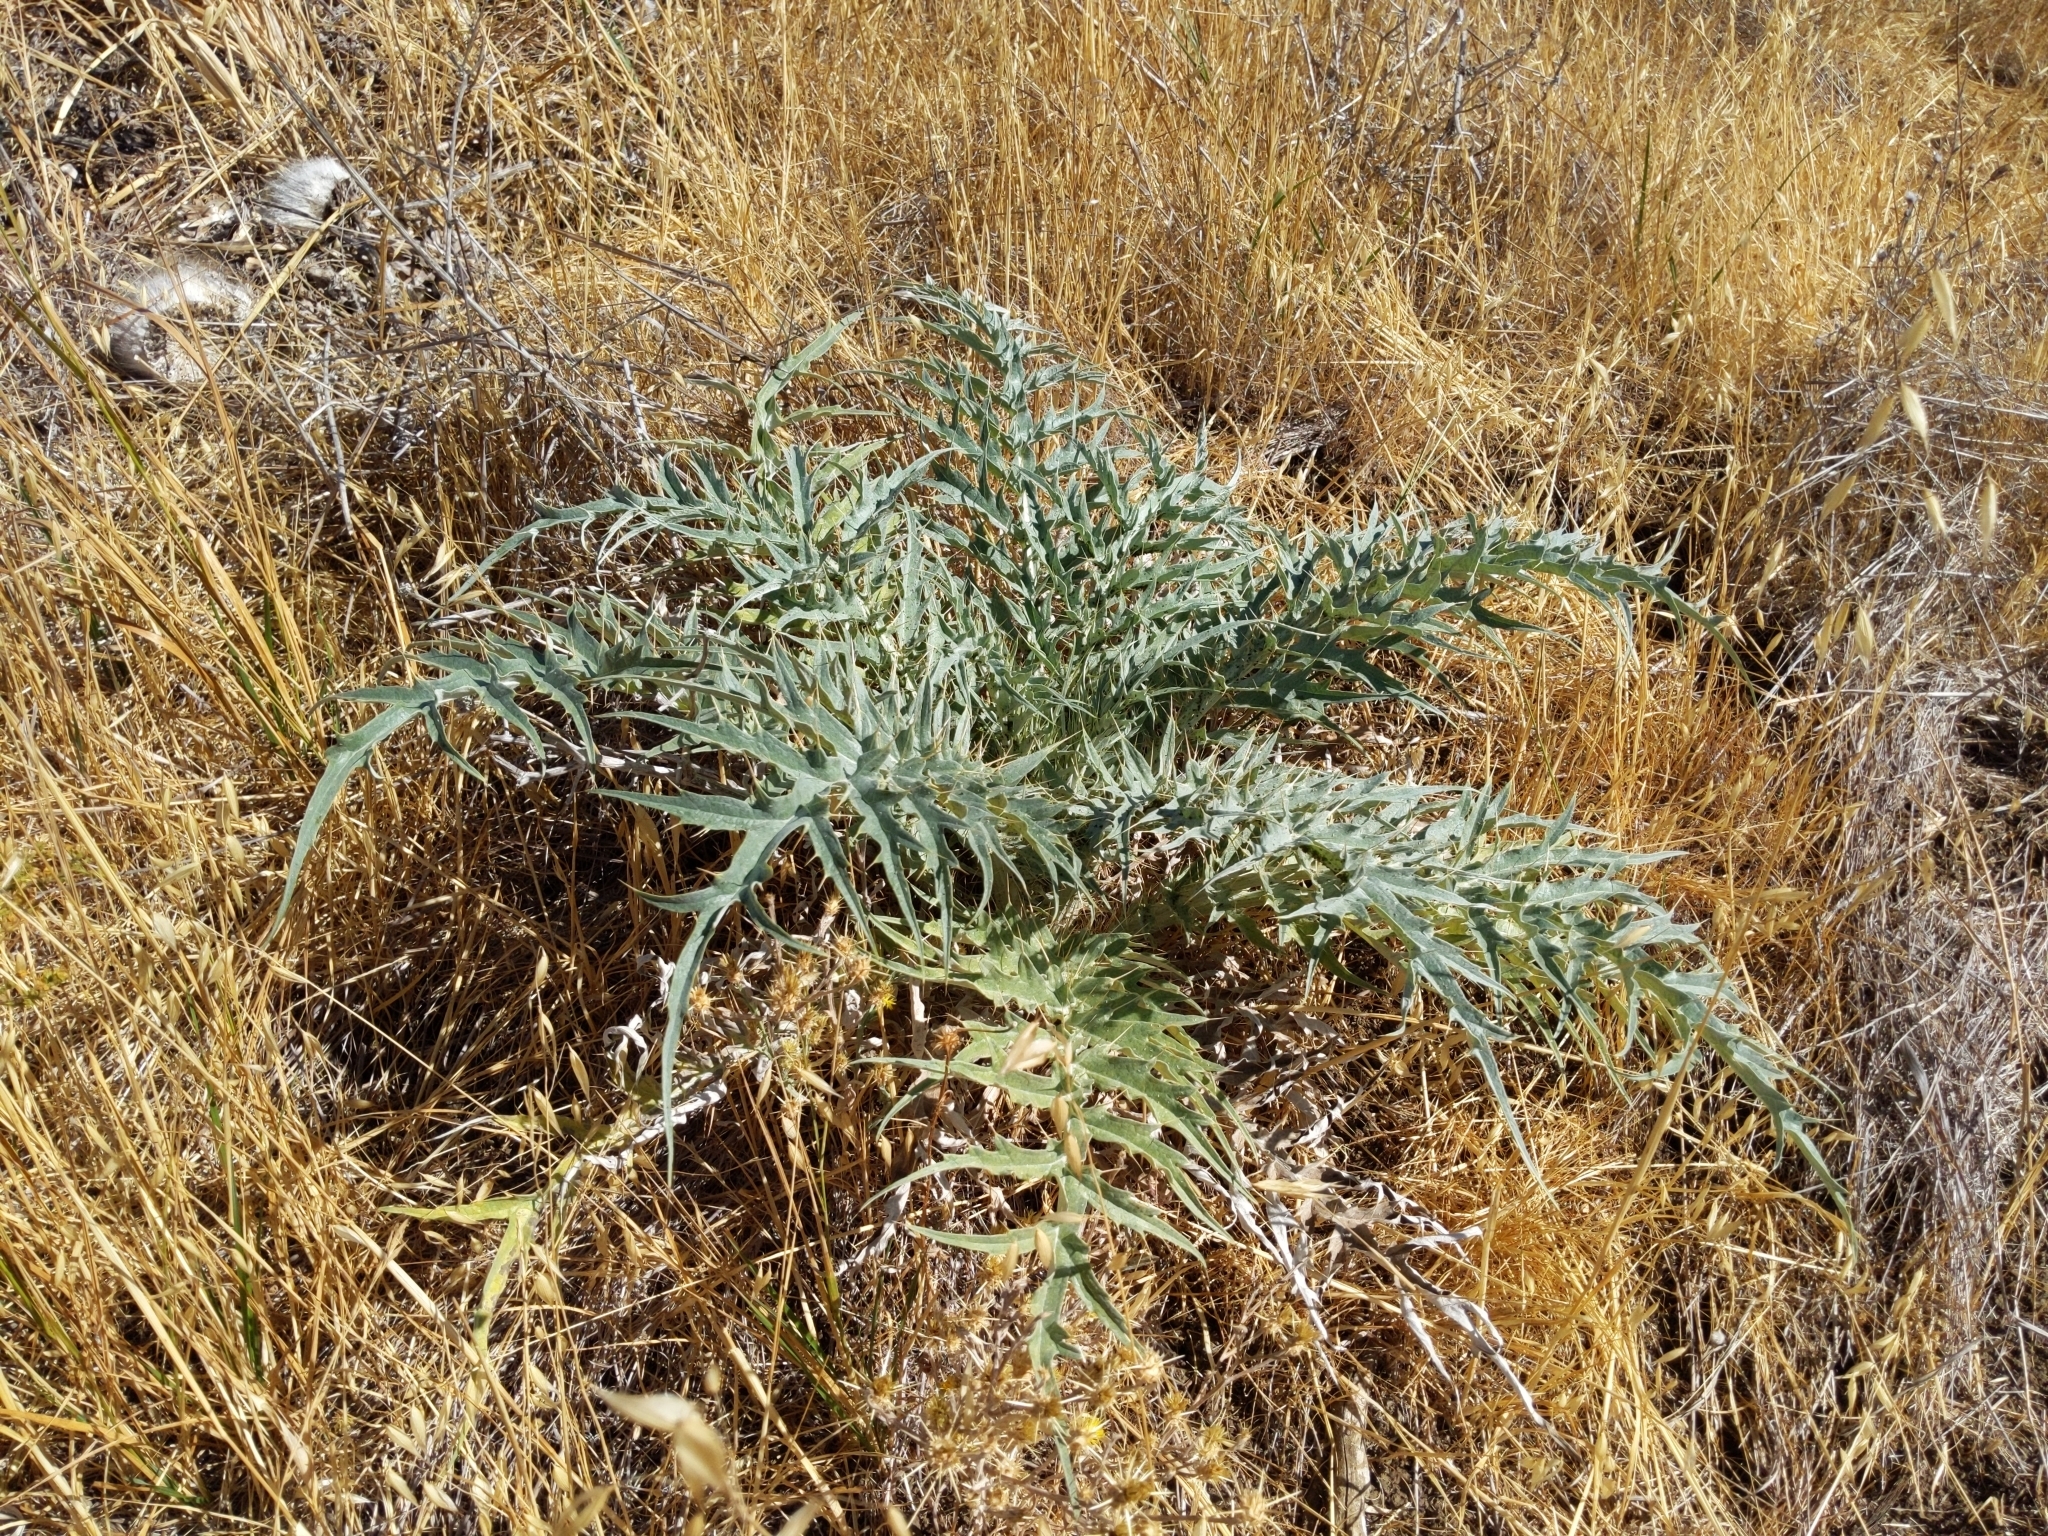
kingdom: Plantae
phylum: Tracheophyta
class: Magnoliopsida
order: Asterales
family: Asteraceae
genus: Cynara
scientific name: Cynara cardunculus
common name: Globe artichoke
